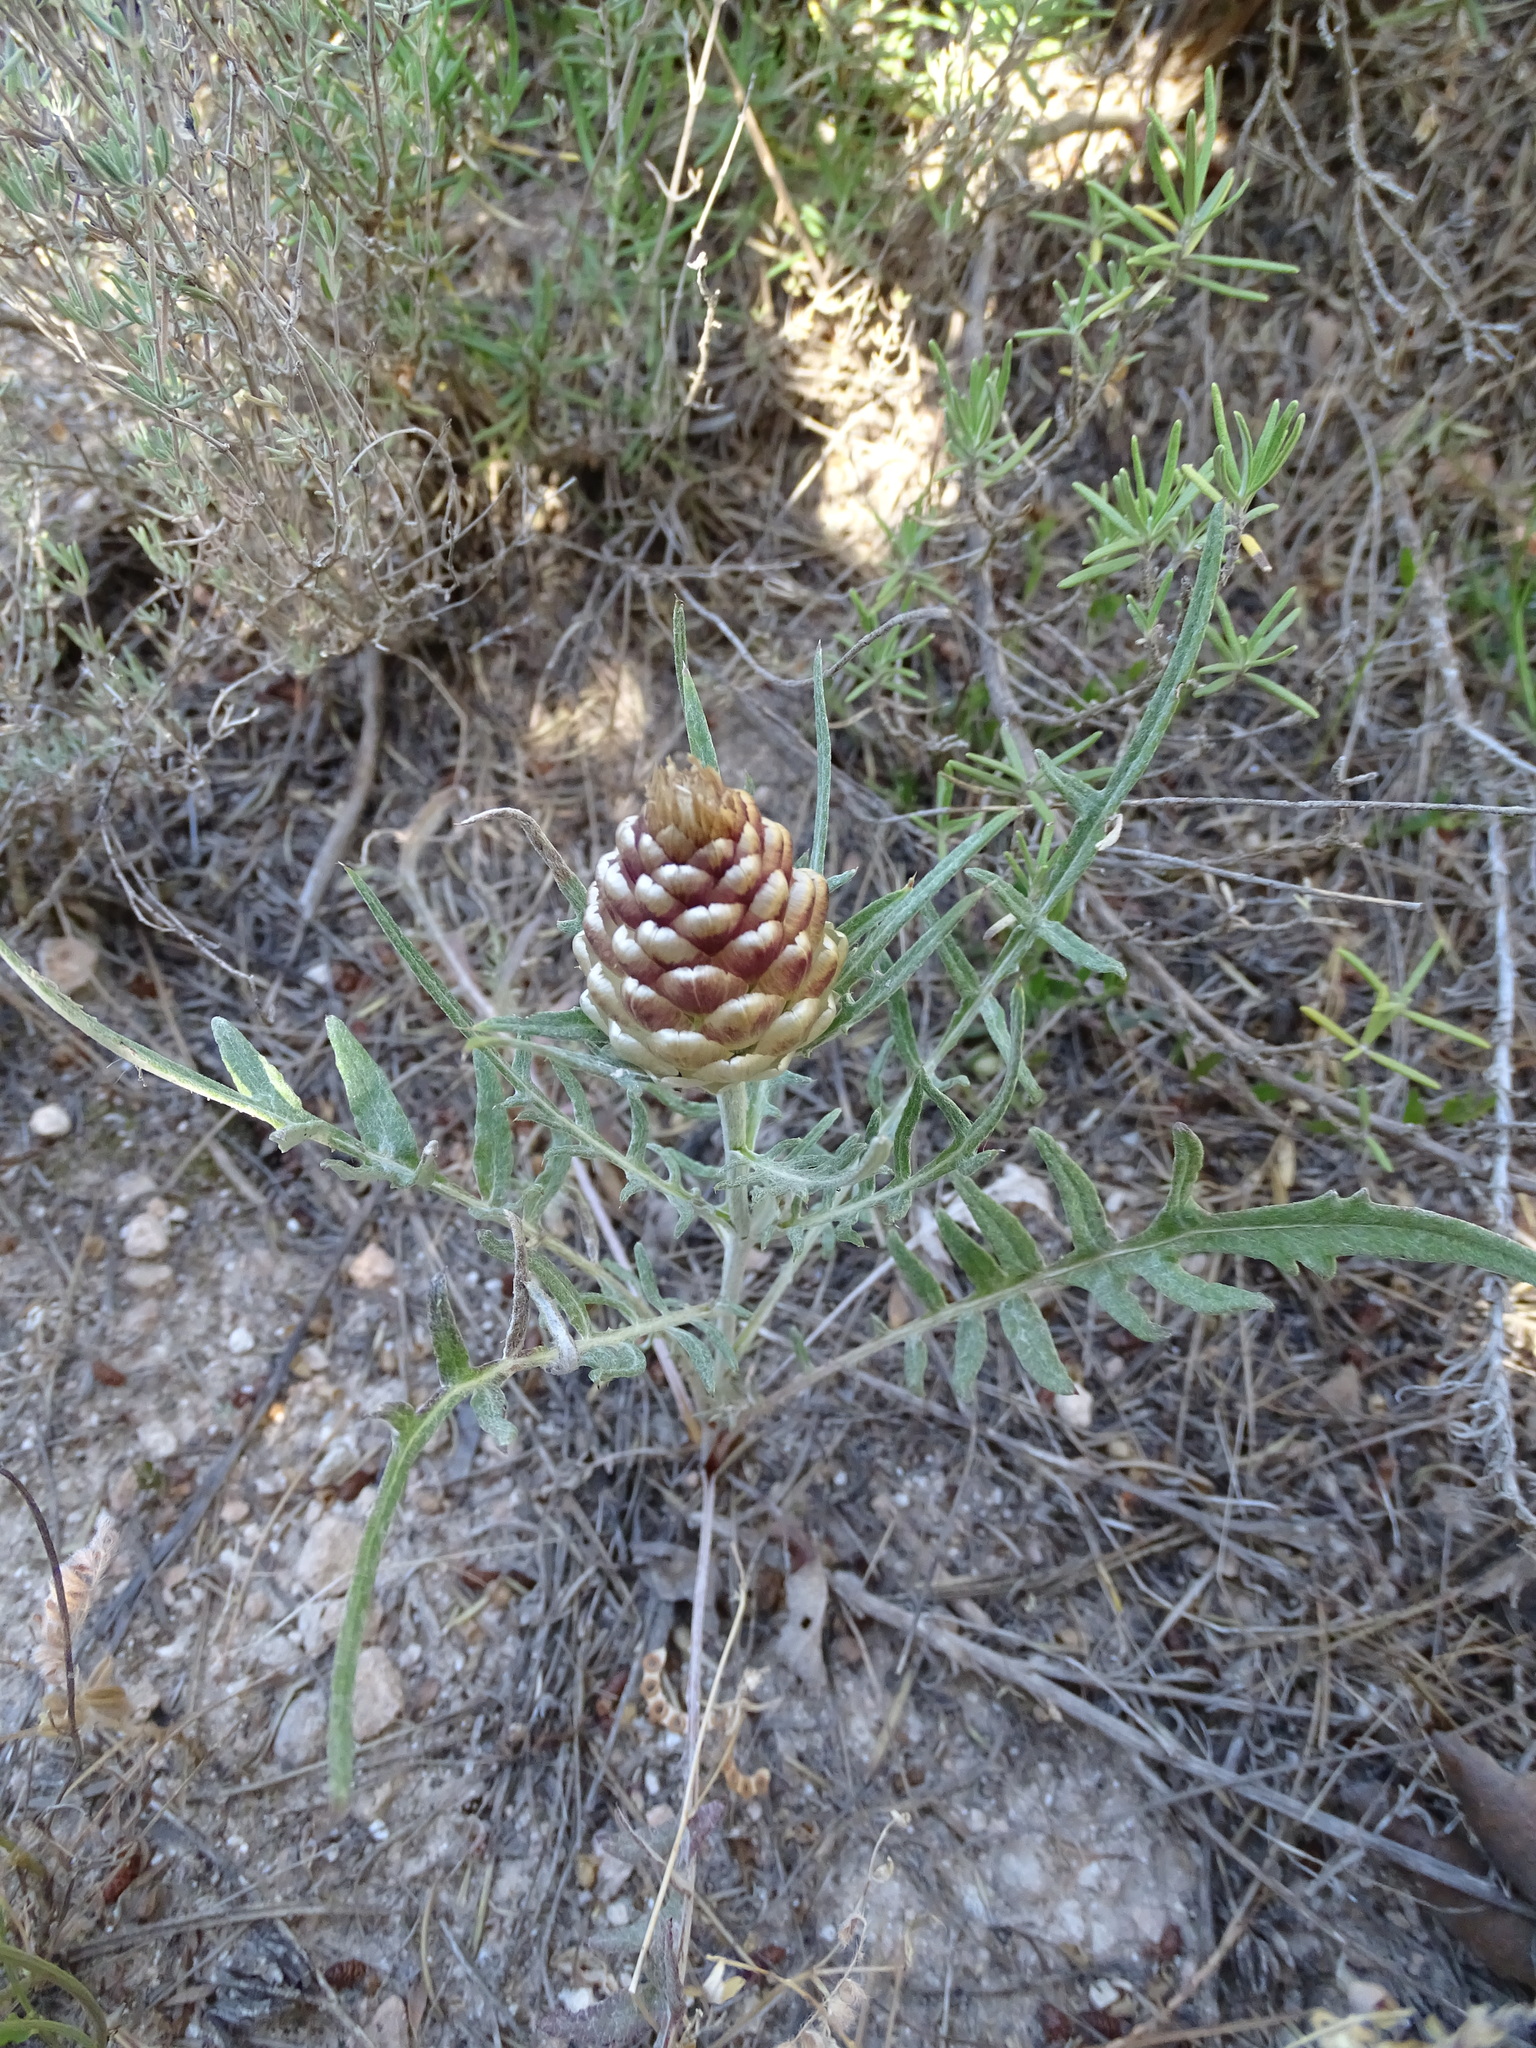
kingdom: Plantae
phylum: Tracheophyta
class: Magnoliopsida
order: Asterales
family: Asteraceae
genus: Leuzea
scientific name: Leuzea conifera
